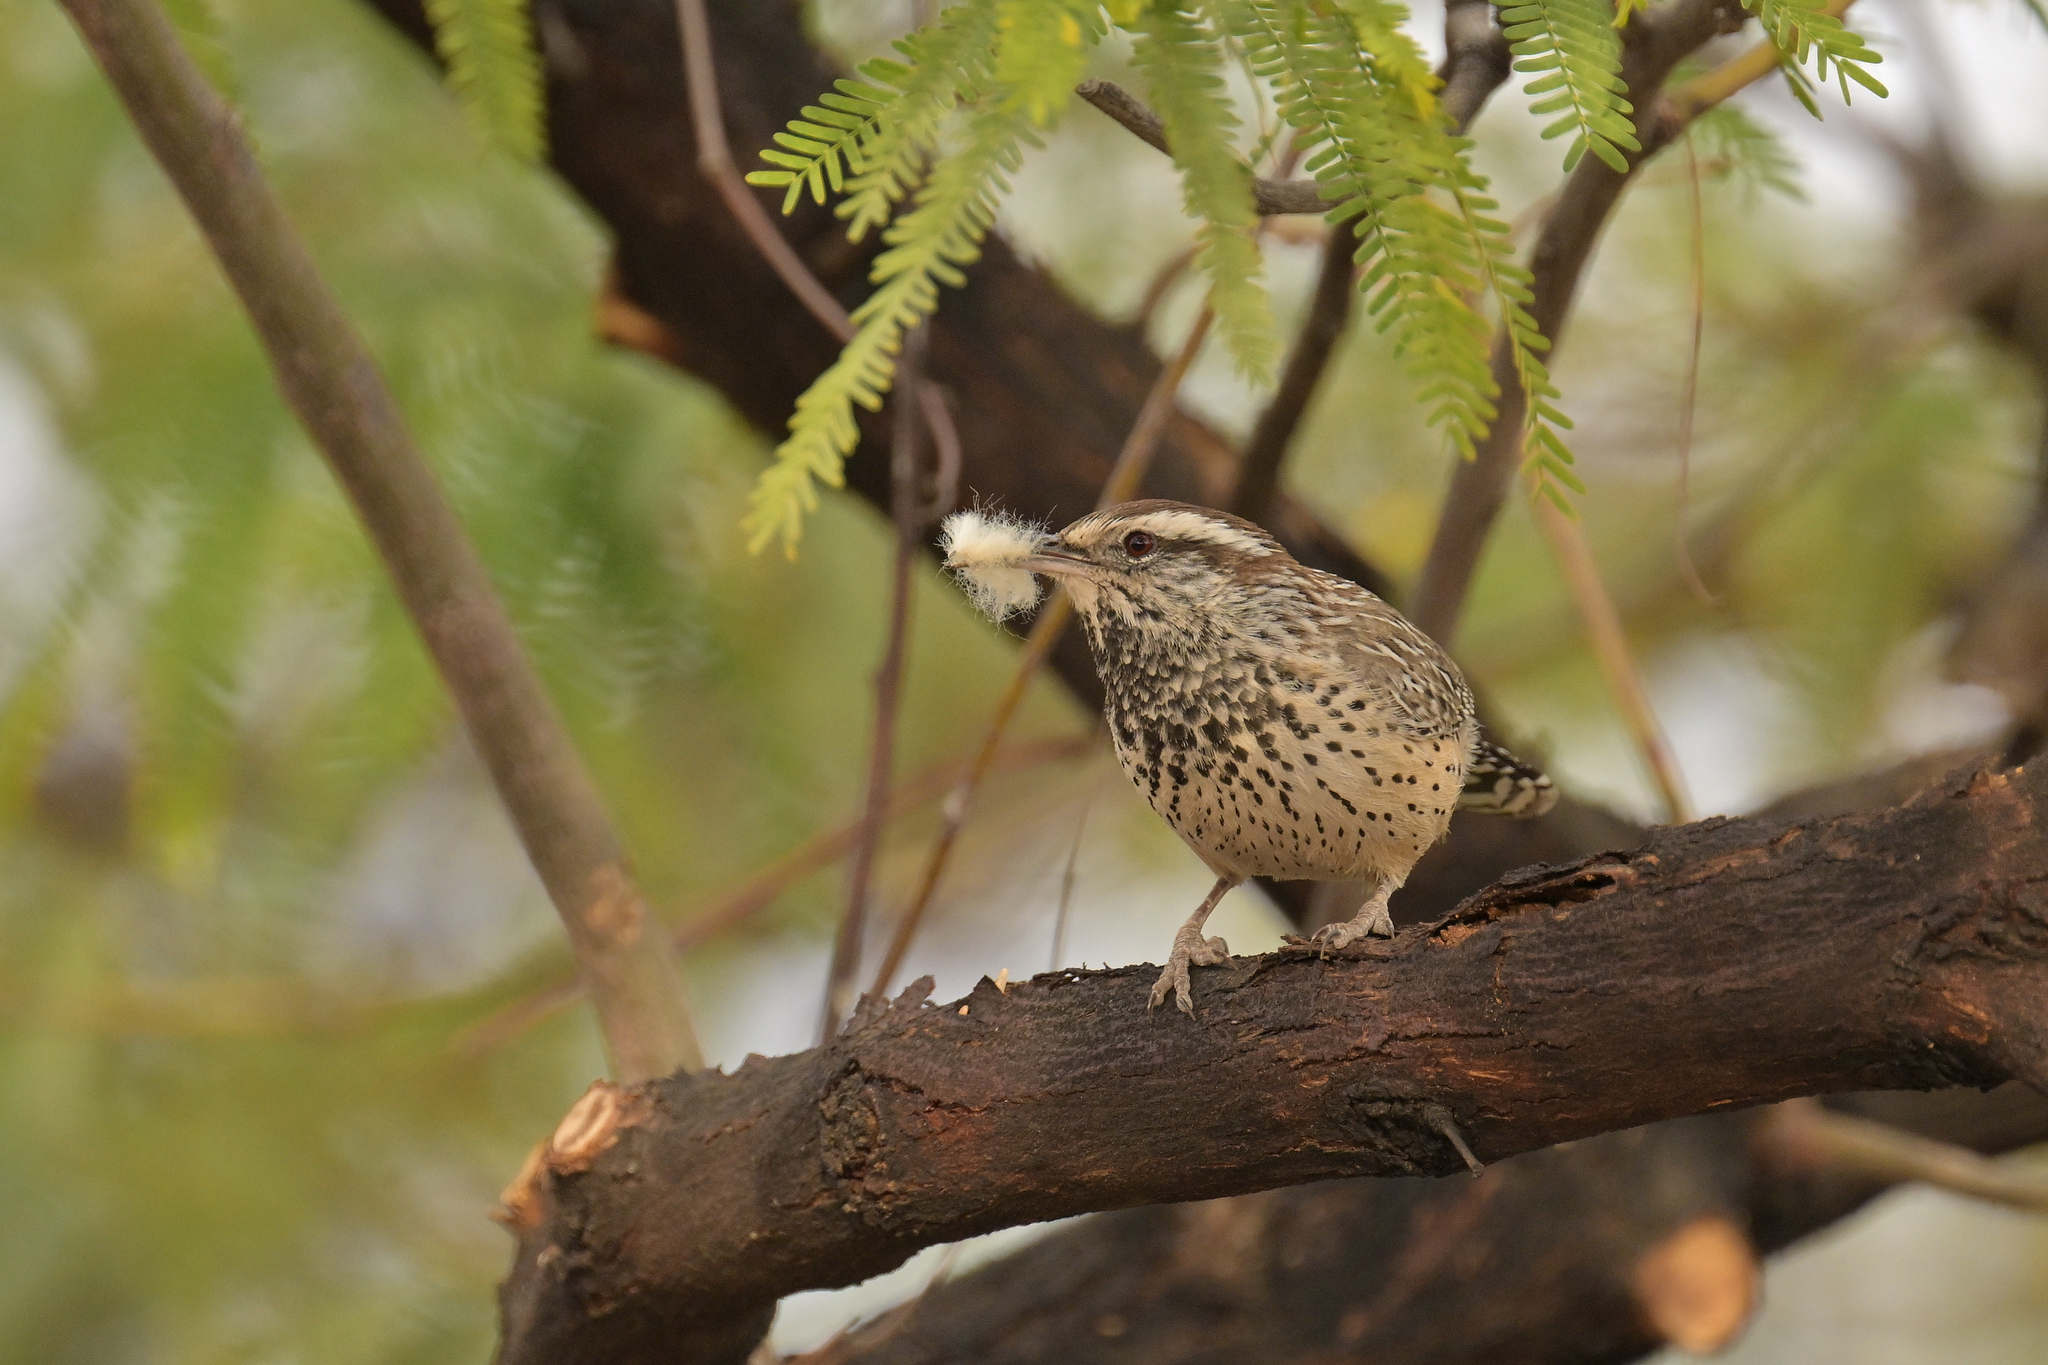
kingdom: Animalia
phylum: Chordata
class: Aves
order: Passeriformes
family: Troglodytidae
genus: Campylorhynchus
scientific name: Campylorhynchus brunneicapillus
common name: Cactus wren
